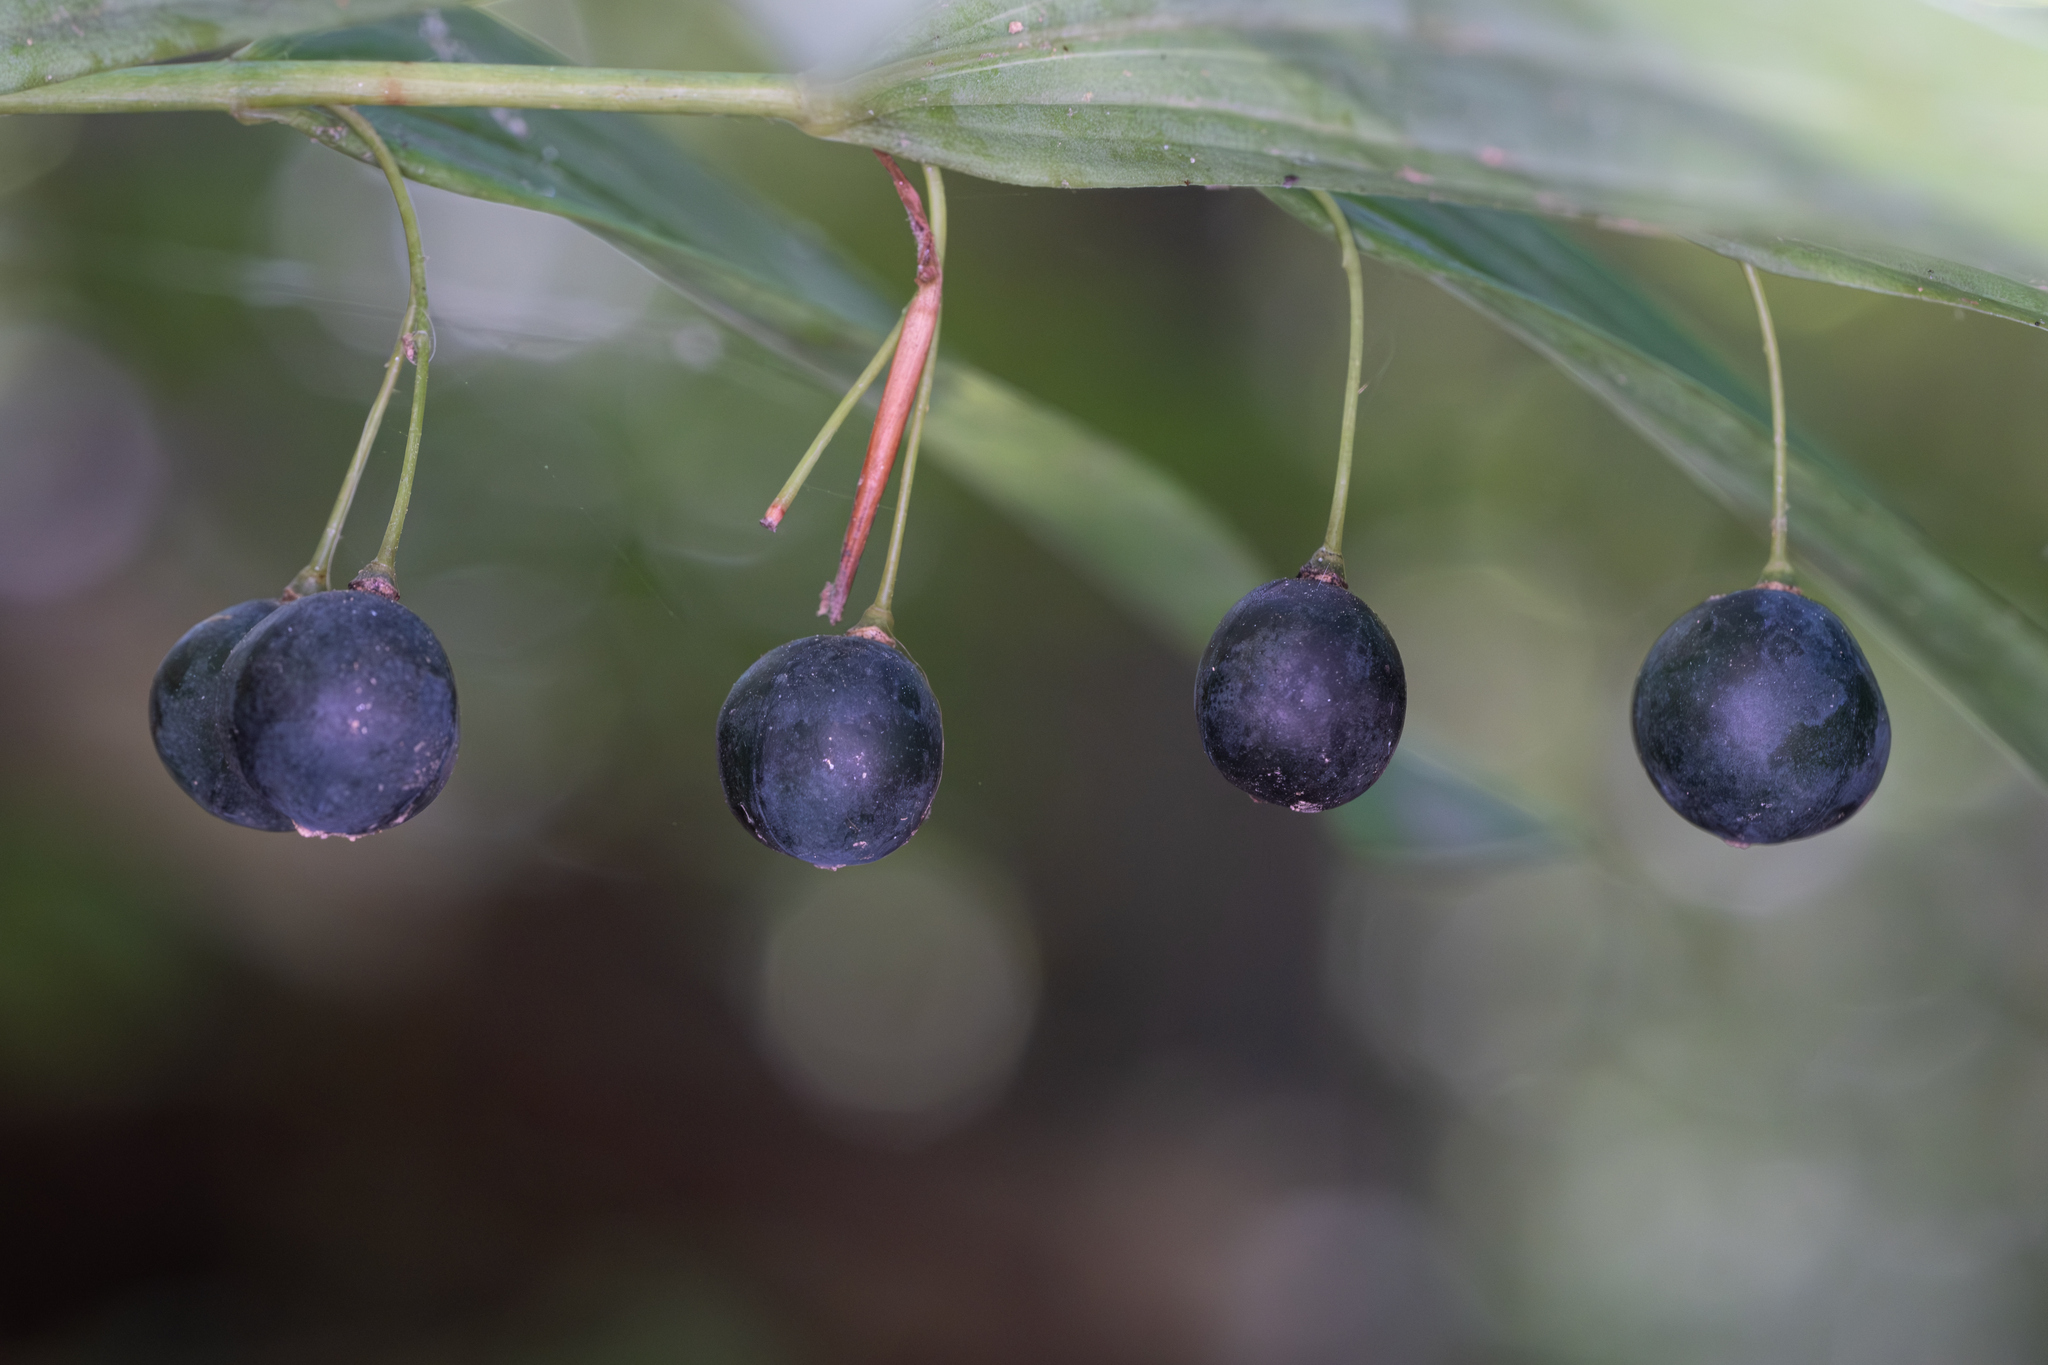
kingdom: Plantae
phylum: Tracheophyta
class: Liliopsida
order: Asparagales
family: Asparagaceae
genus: Polygonatum
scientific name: Polygonatum biflorum
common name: American solomon's-seal
